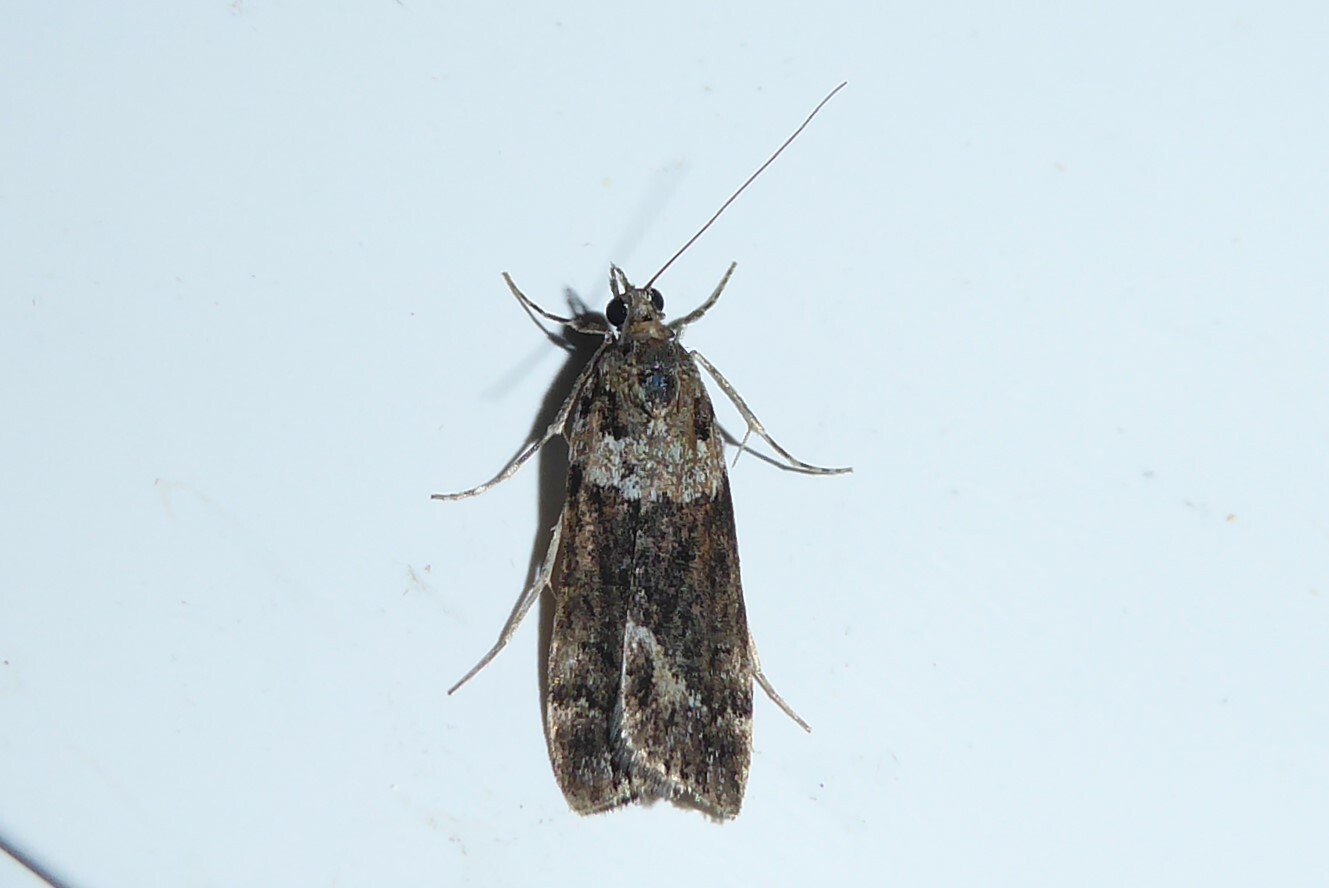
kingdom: Animalia
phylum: Arthropoda
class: Insecta
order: Lepidoptera
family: Crambidae
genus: Eudonia
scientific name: Eudonia submarginalis
